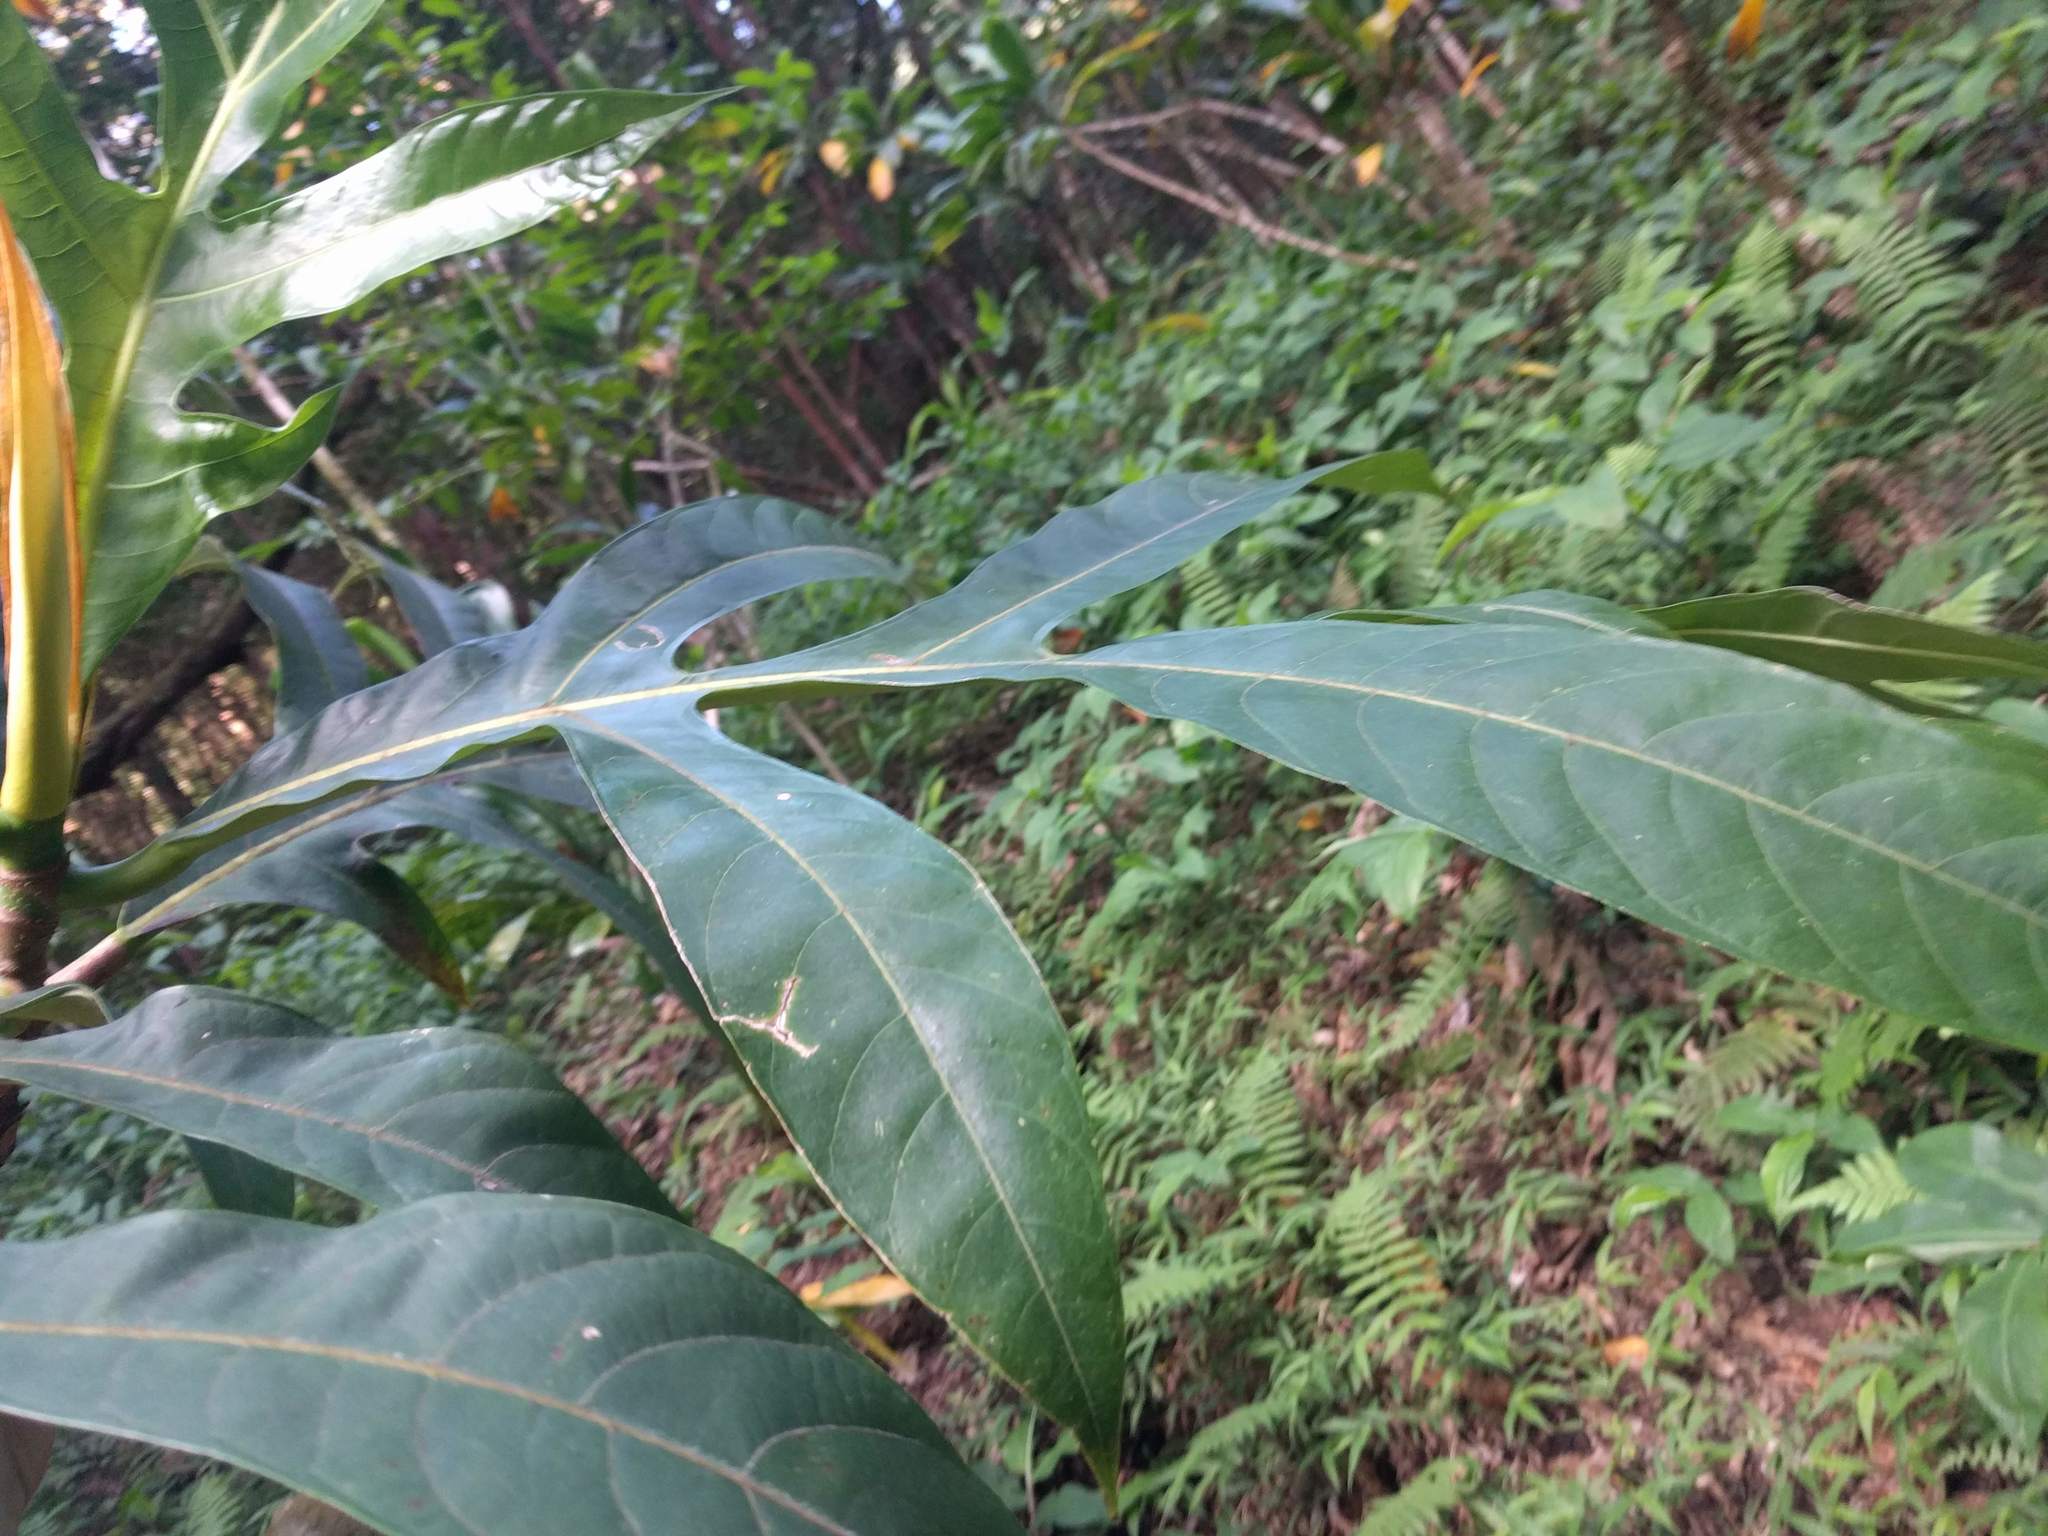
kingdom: Plantae
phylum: Tracheophyta
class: Magnoliopsida
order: Rosales
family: Moraceae
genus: Artocarpus
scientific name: Artocarpus altilis
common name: Breadfruit
